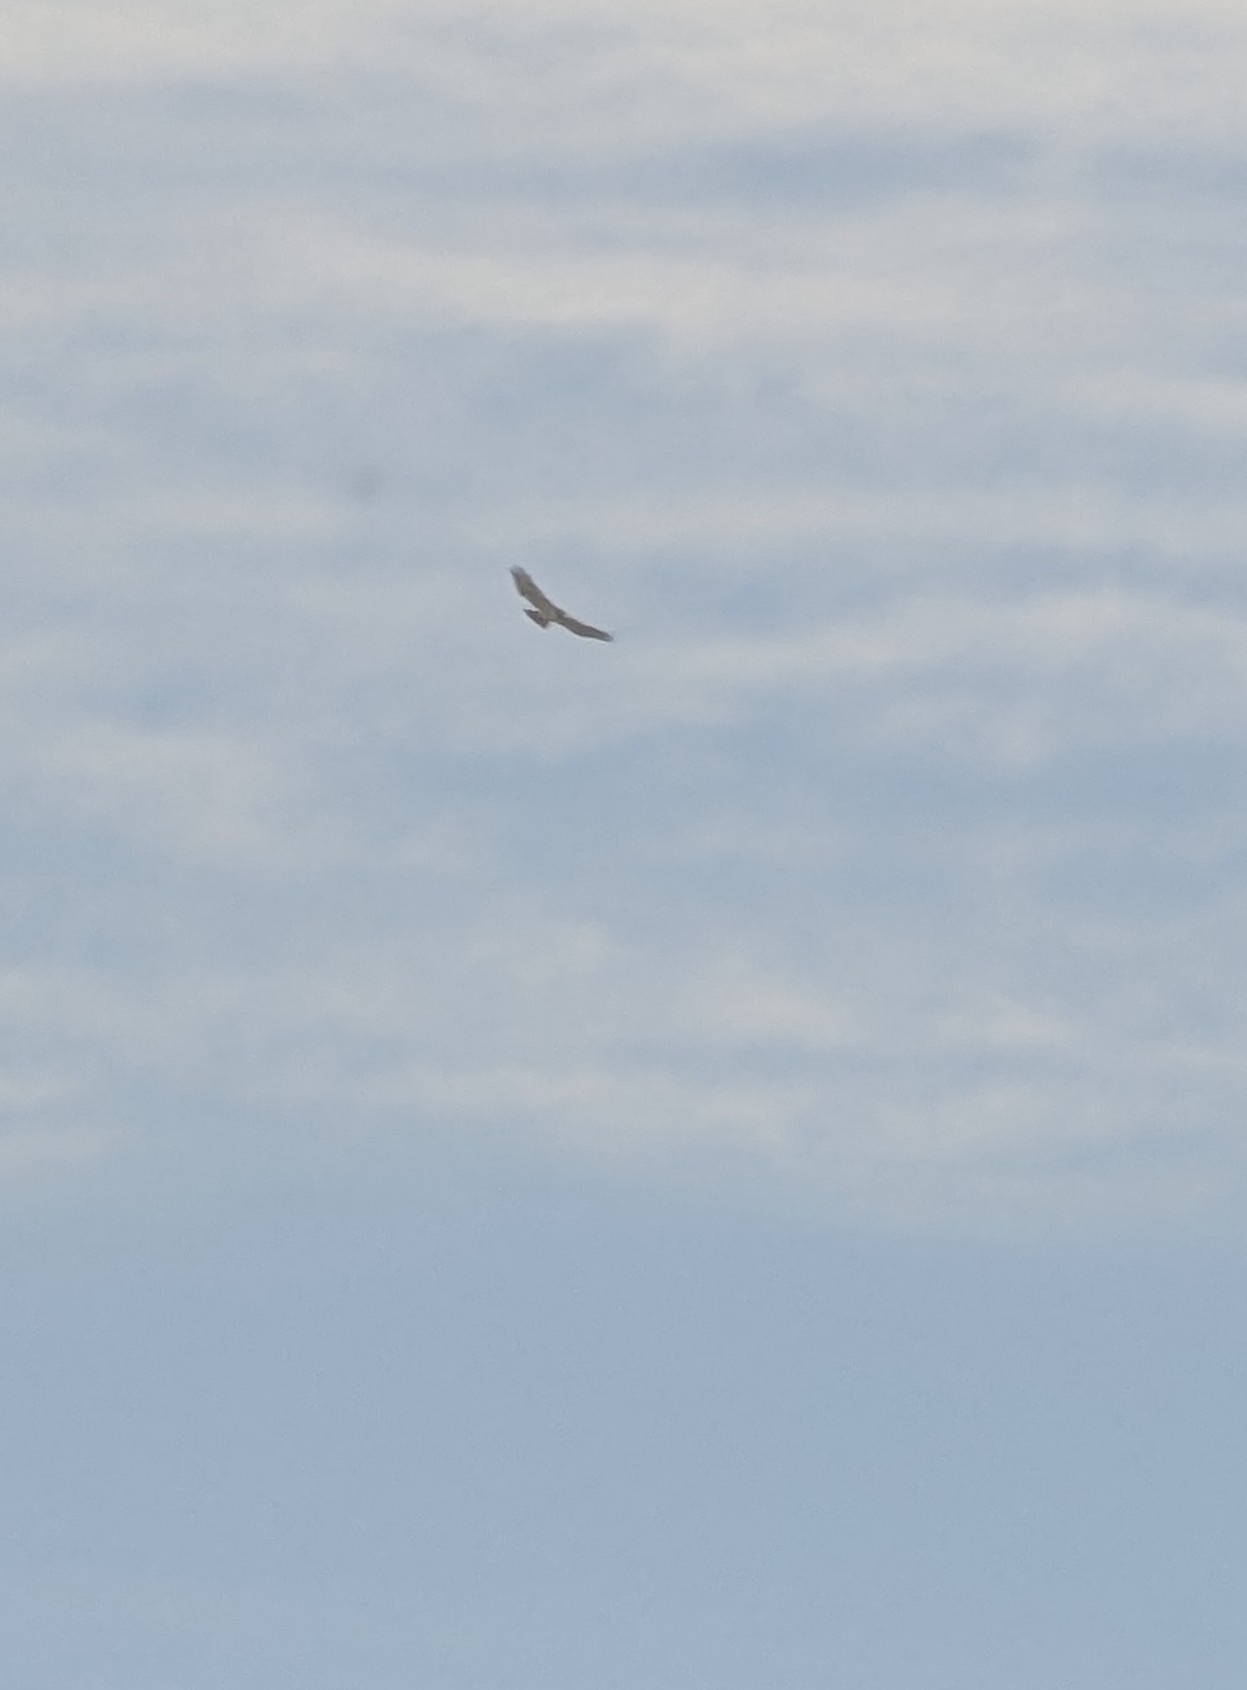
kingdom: Animalia
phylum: Chordata
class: Aves
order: Accipitriformes
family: Accipitridae
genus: Buteo
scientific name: Buteo jamaicensis
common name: Red-tailed hawk
